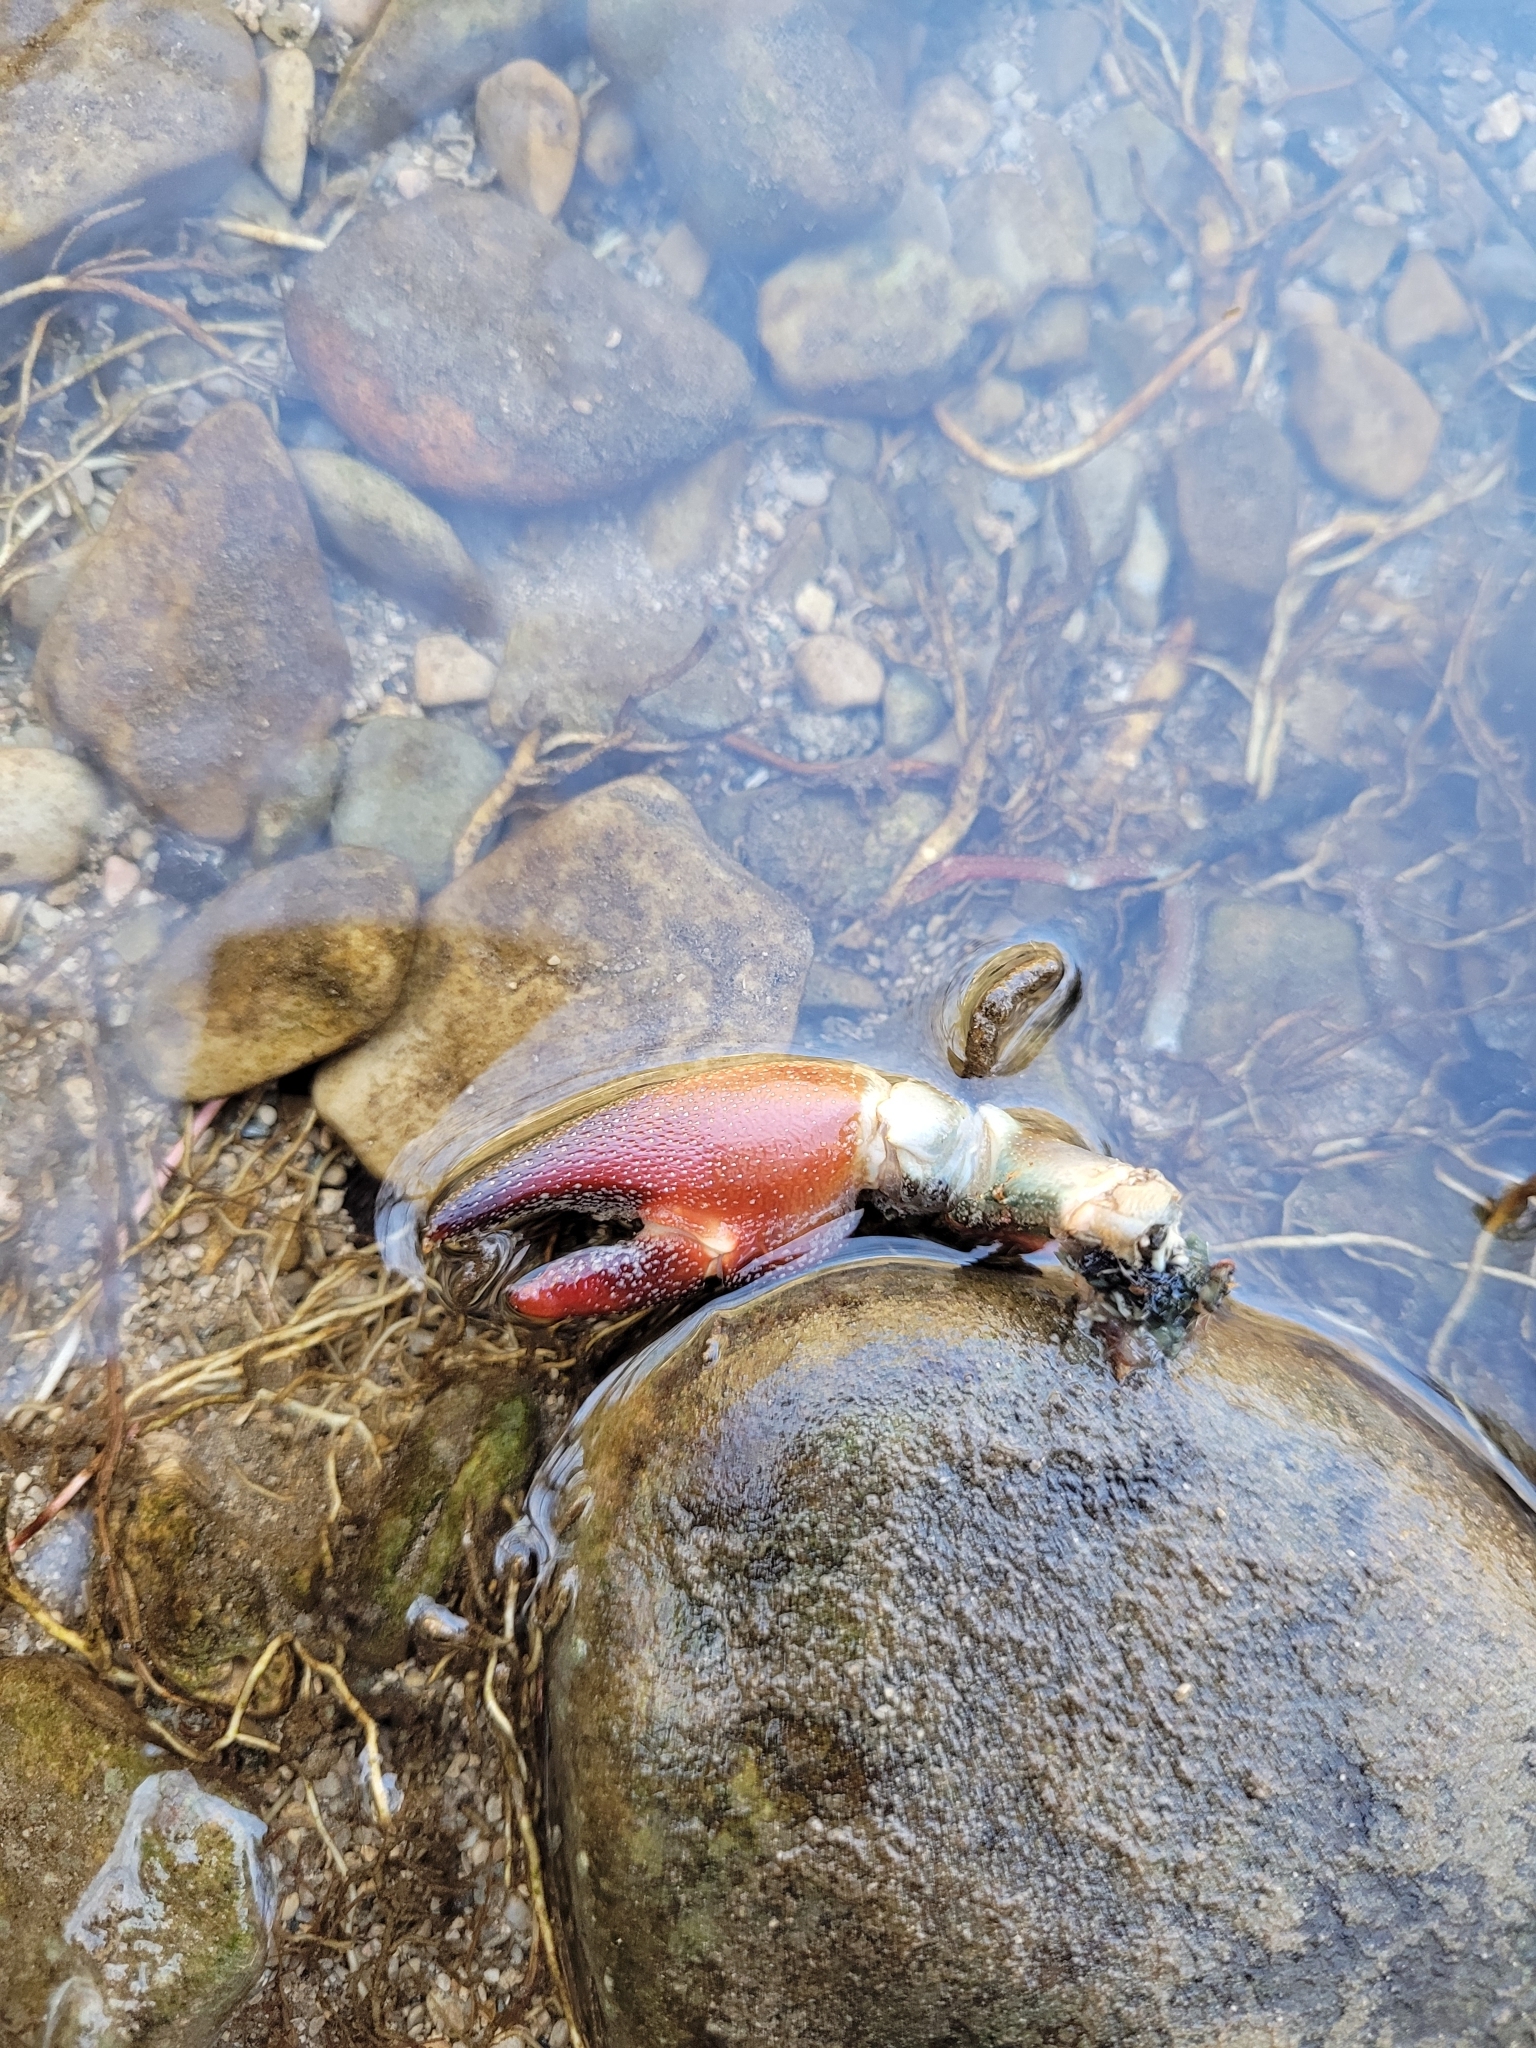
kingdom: Animalia
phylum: Arthropoda
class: Malacostraca
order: Decapoda
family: Astacidae
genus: Pacifastacus
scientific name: Pacifastacus leniusculus
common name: Signal crayfish
